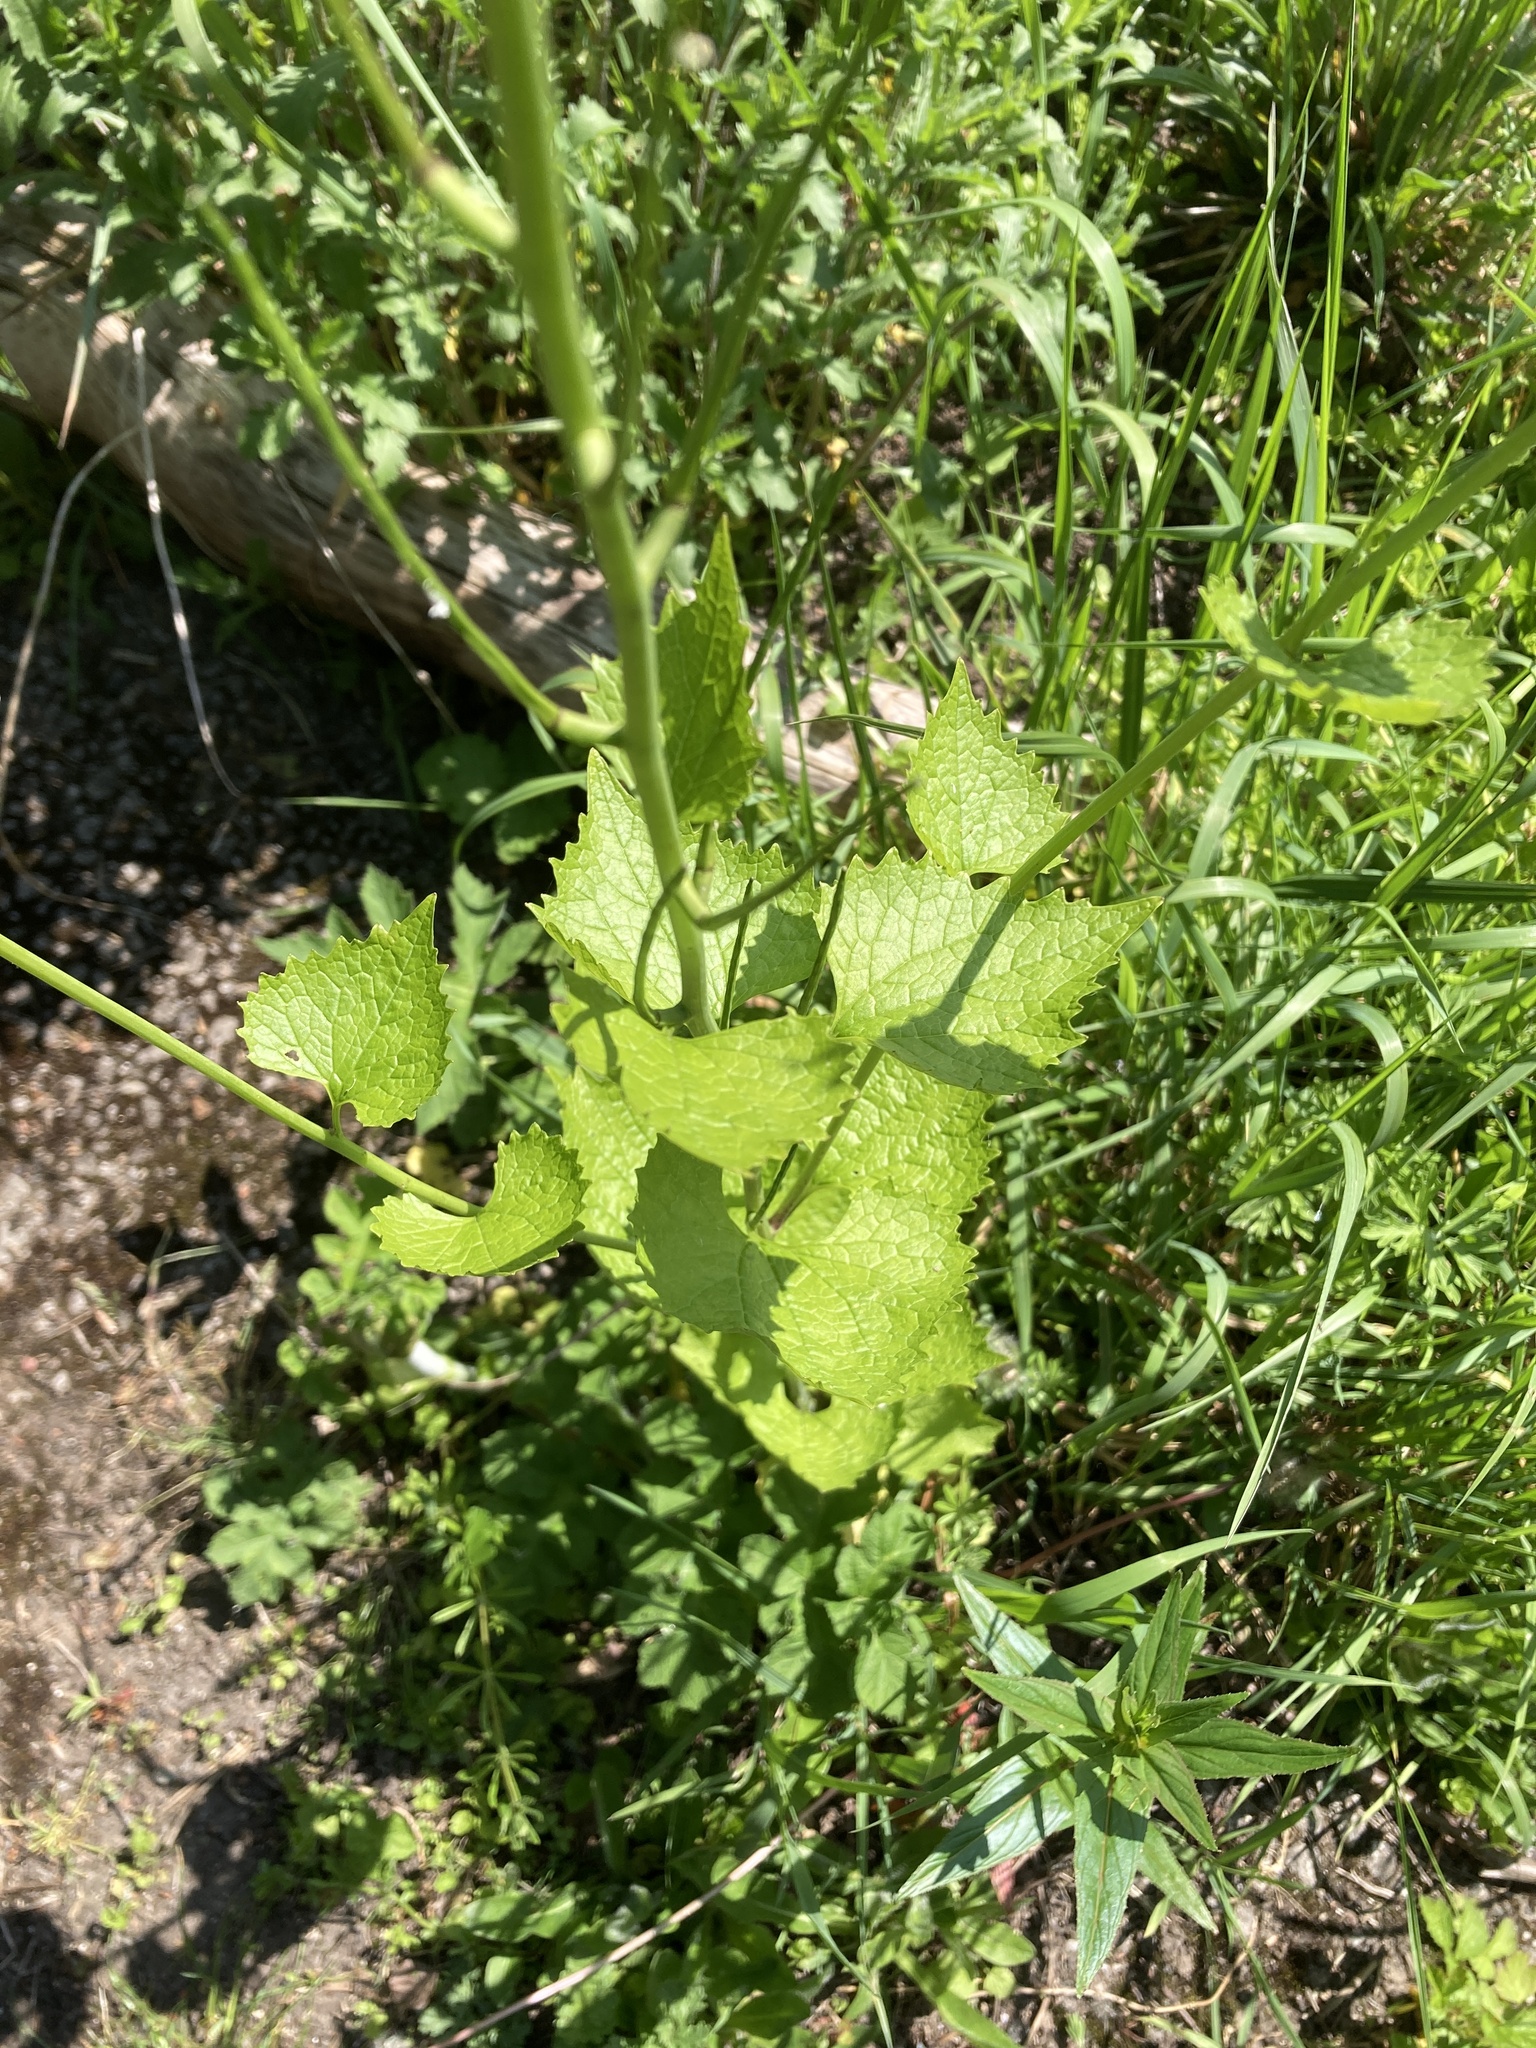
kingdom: Plantae
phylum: Tracheophyta
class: Magnoliopsida
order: Brassicales
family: Brassicaceae
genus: Alliaria
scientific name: Alliaria petiolata
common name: Garlic mustard
